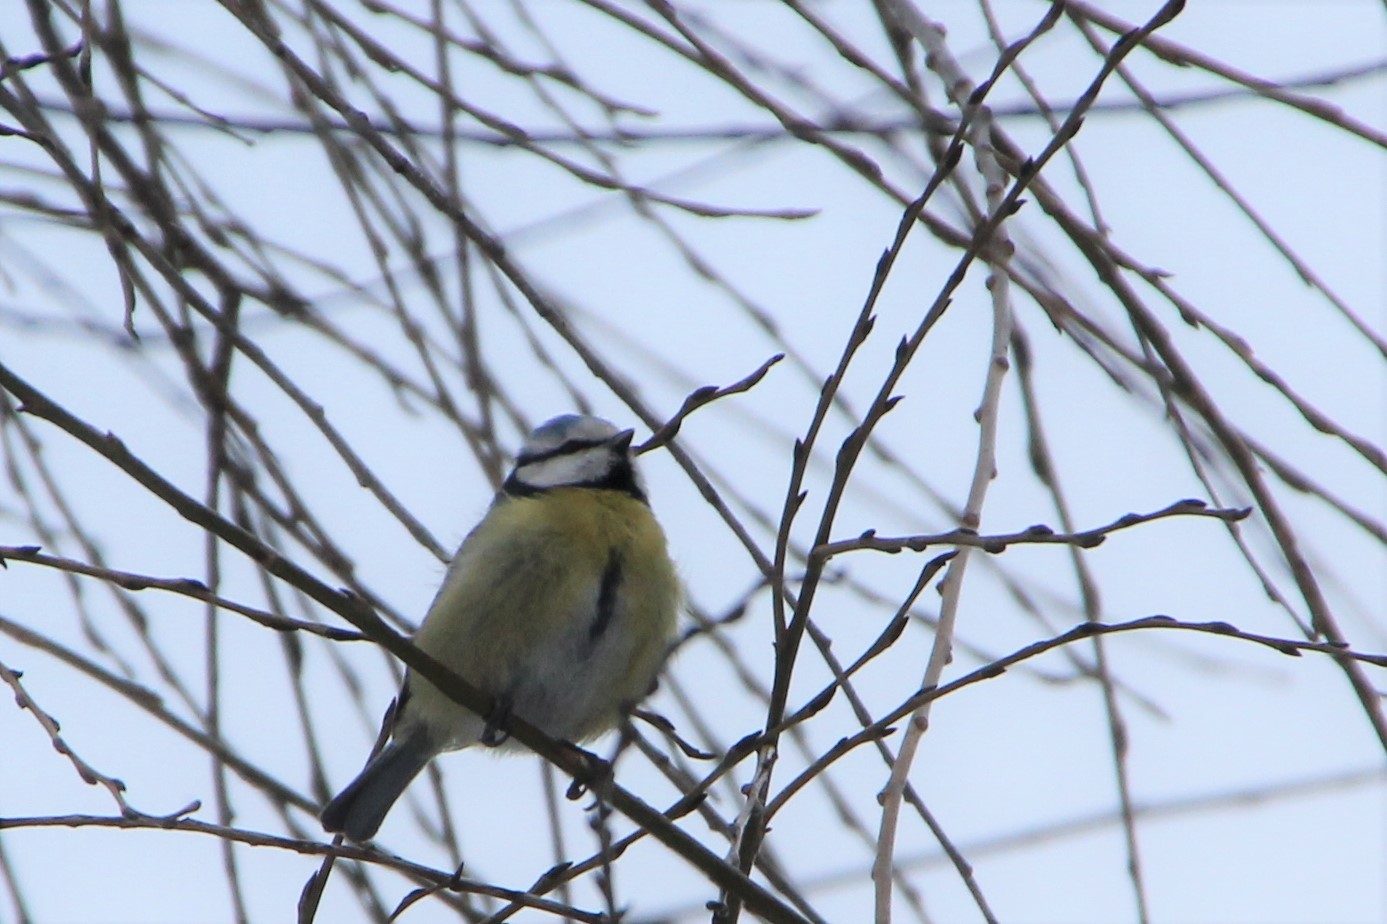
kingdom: Animalia
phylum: Chordata
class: Aves
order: Passeriformes
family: Paridae
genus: Cyanistes
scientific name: Cyanistes caeruleus
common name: Eurasian blue tit
